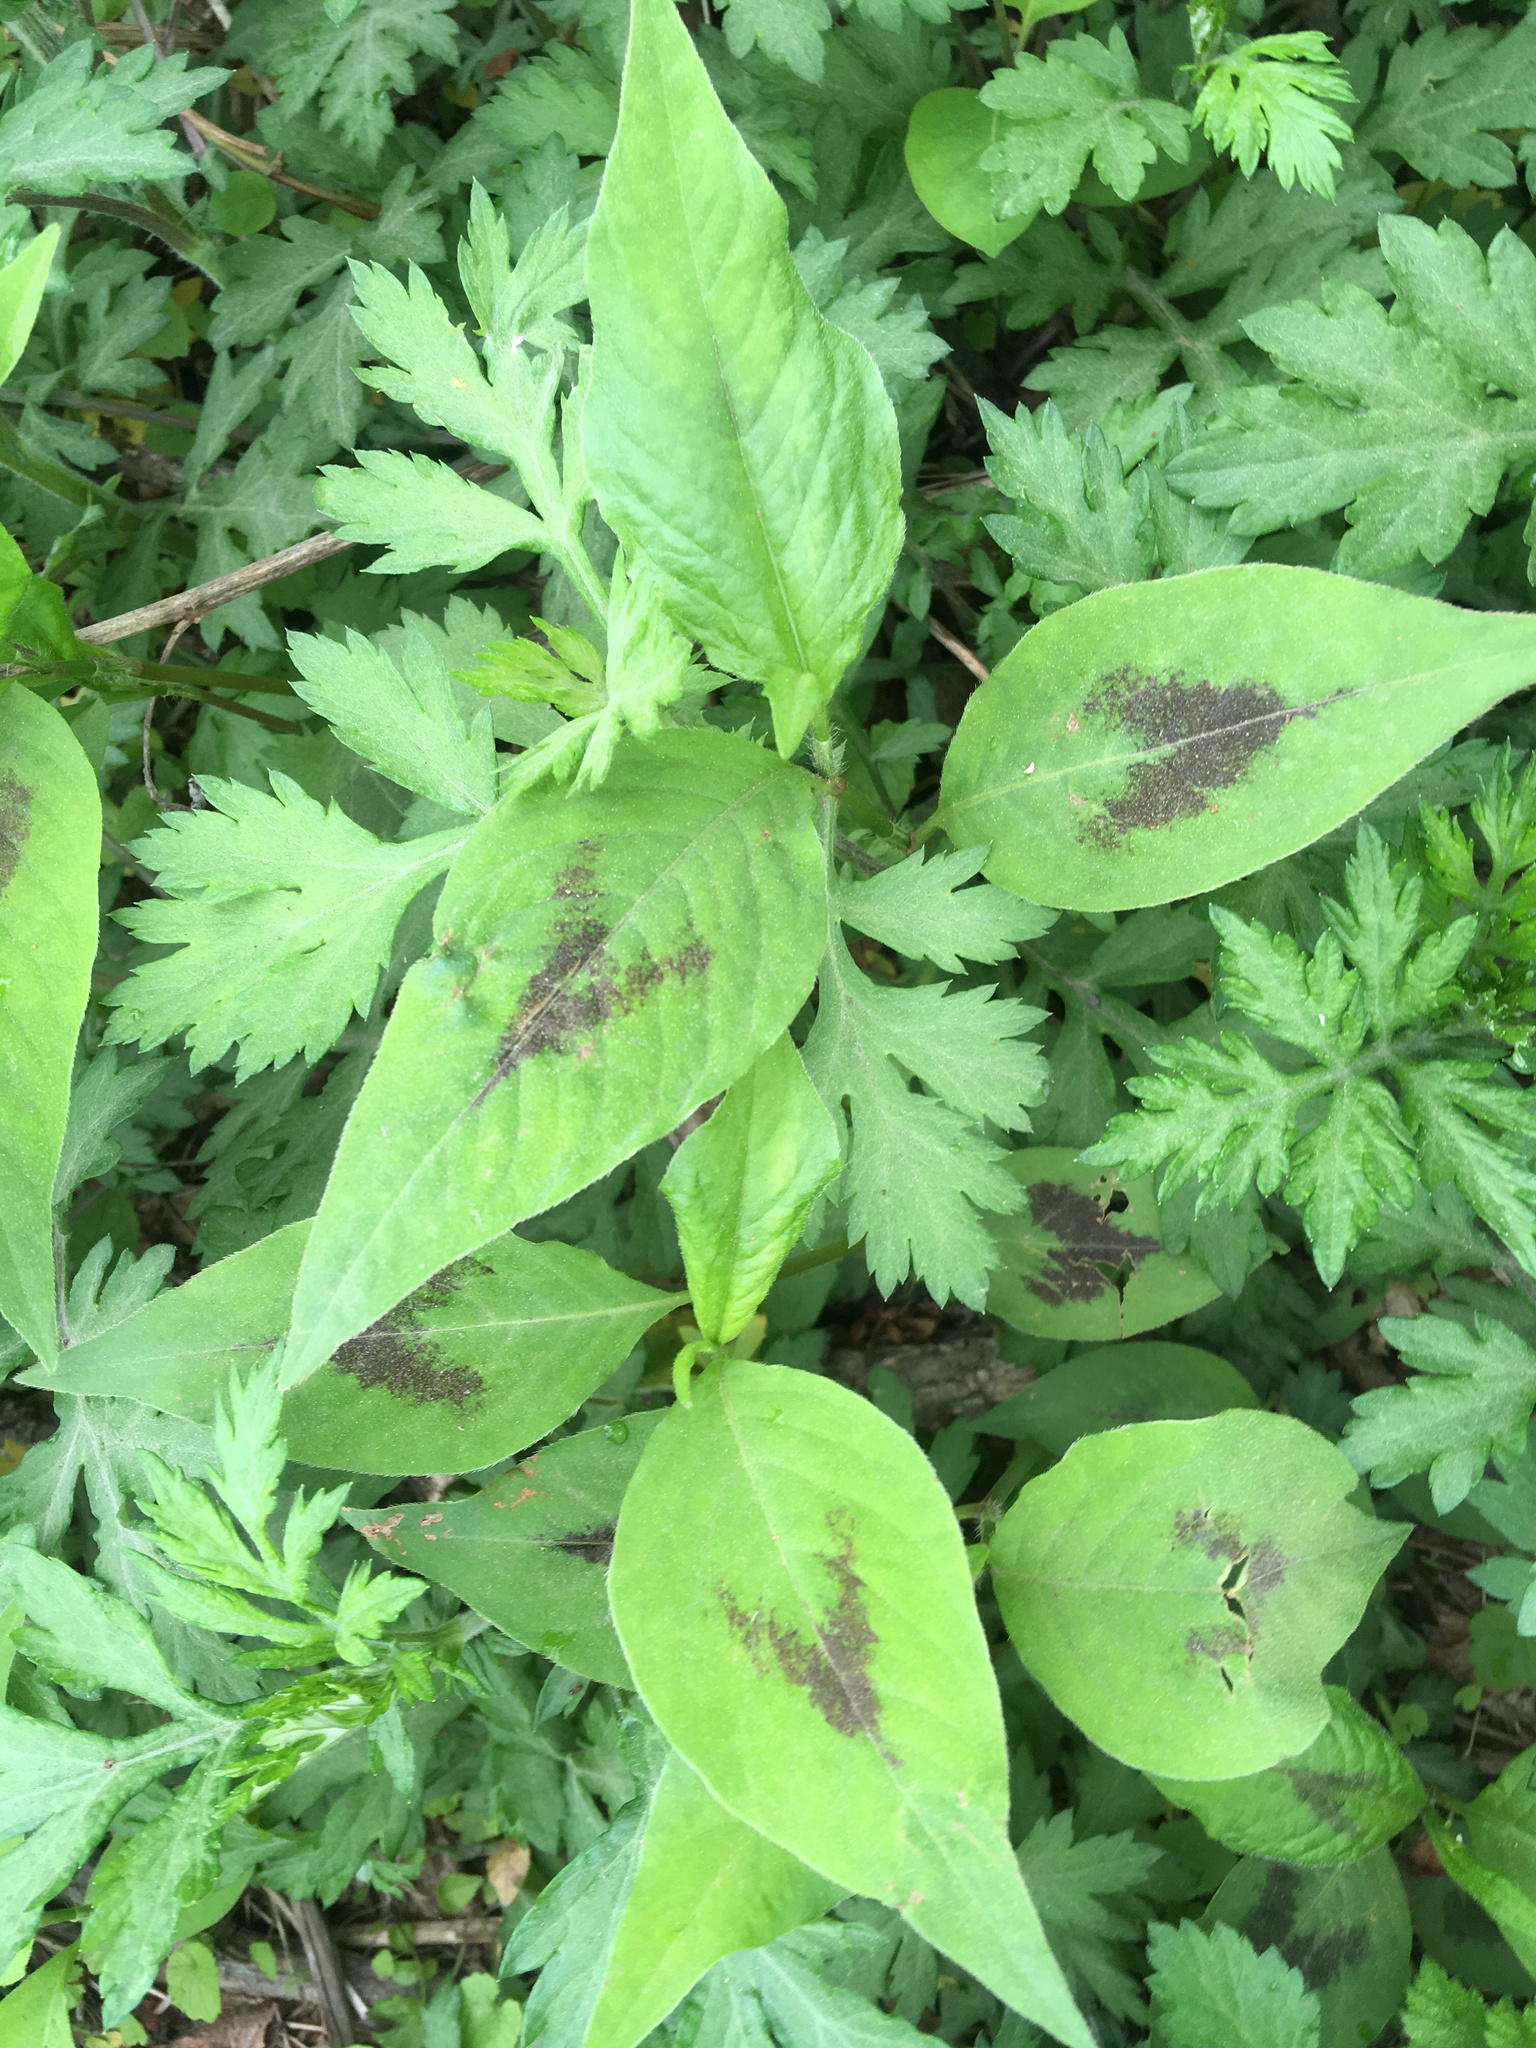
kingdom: Plantae
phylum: Tracheophyta
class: Magnoliopsida
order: Caryophyllales
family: Polygonaceae
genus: Persicaria
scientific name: Persicaria virginiana
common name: Jumpseed
